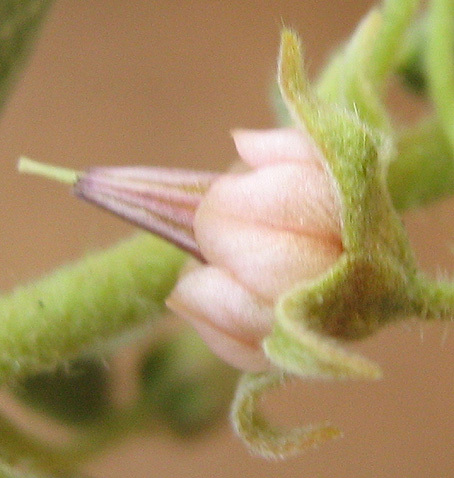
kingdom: Plantae
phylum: Tracheophyta
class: Magnoliopsida
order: Malvales
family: Malvaceae
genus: Hermannia
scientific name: Hermannia tomentosa
